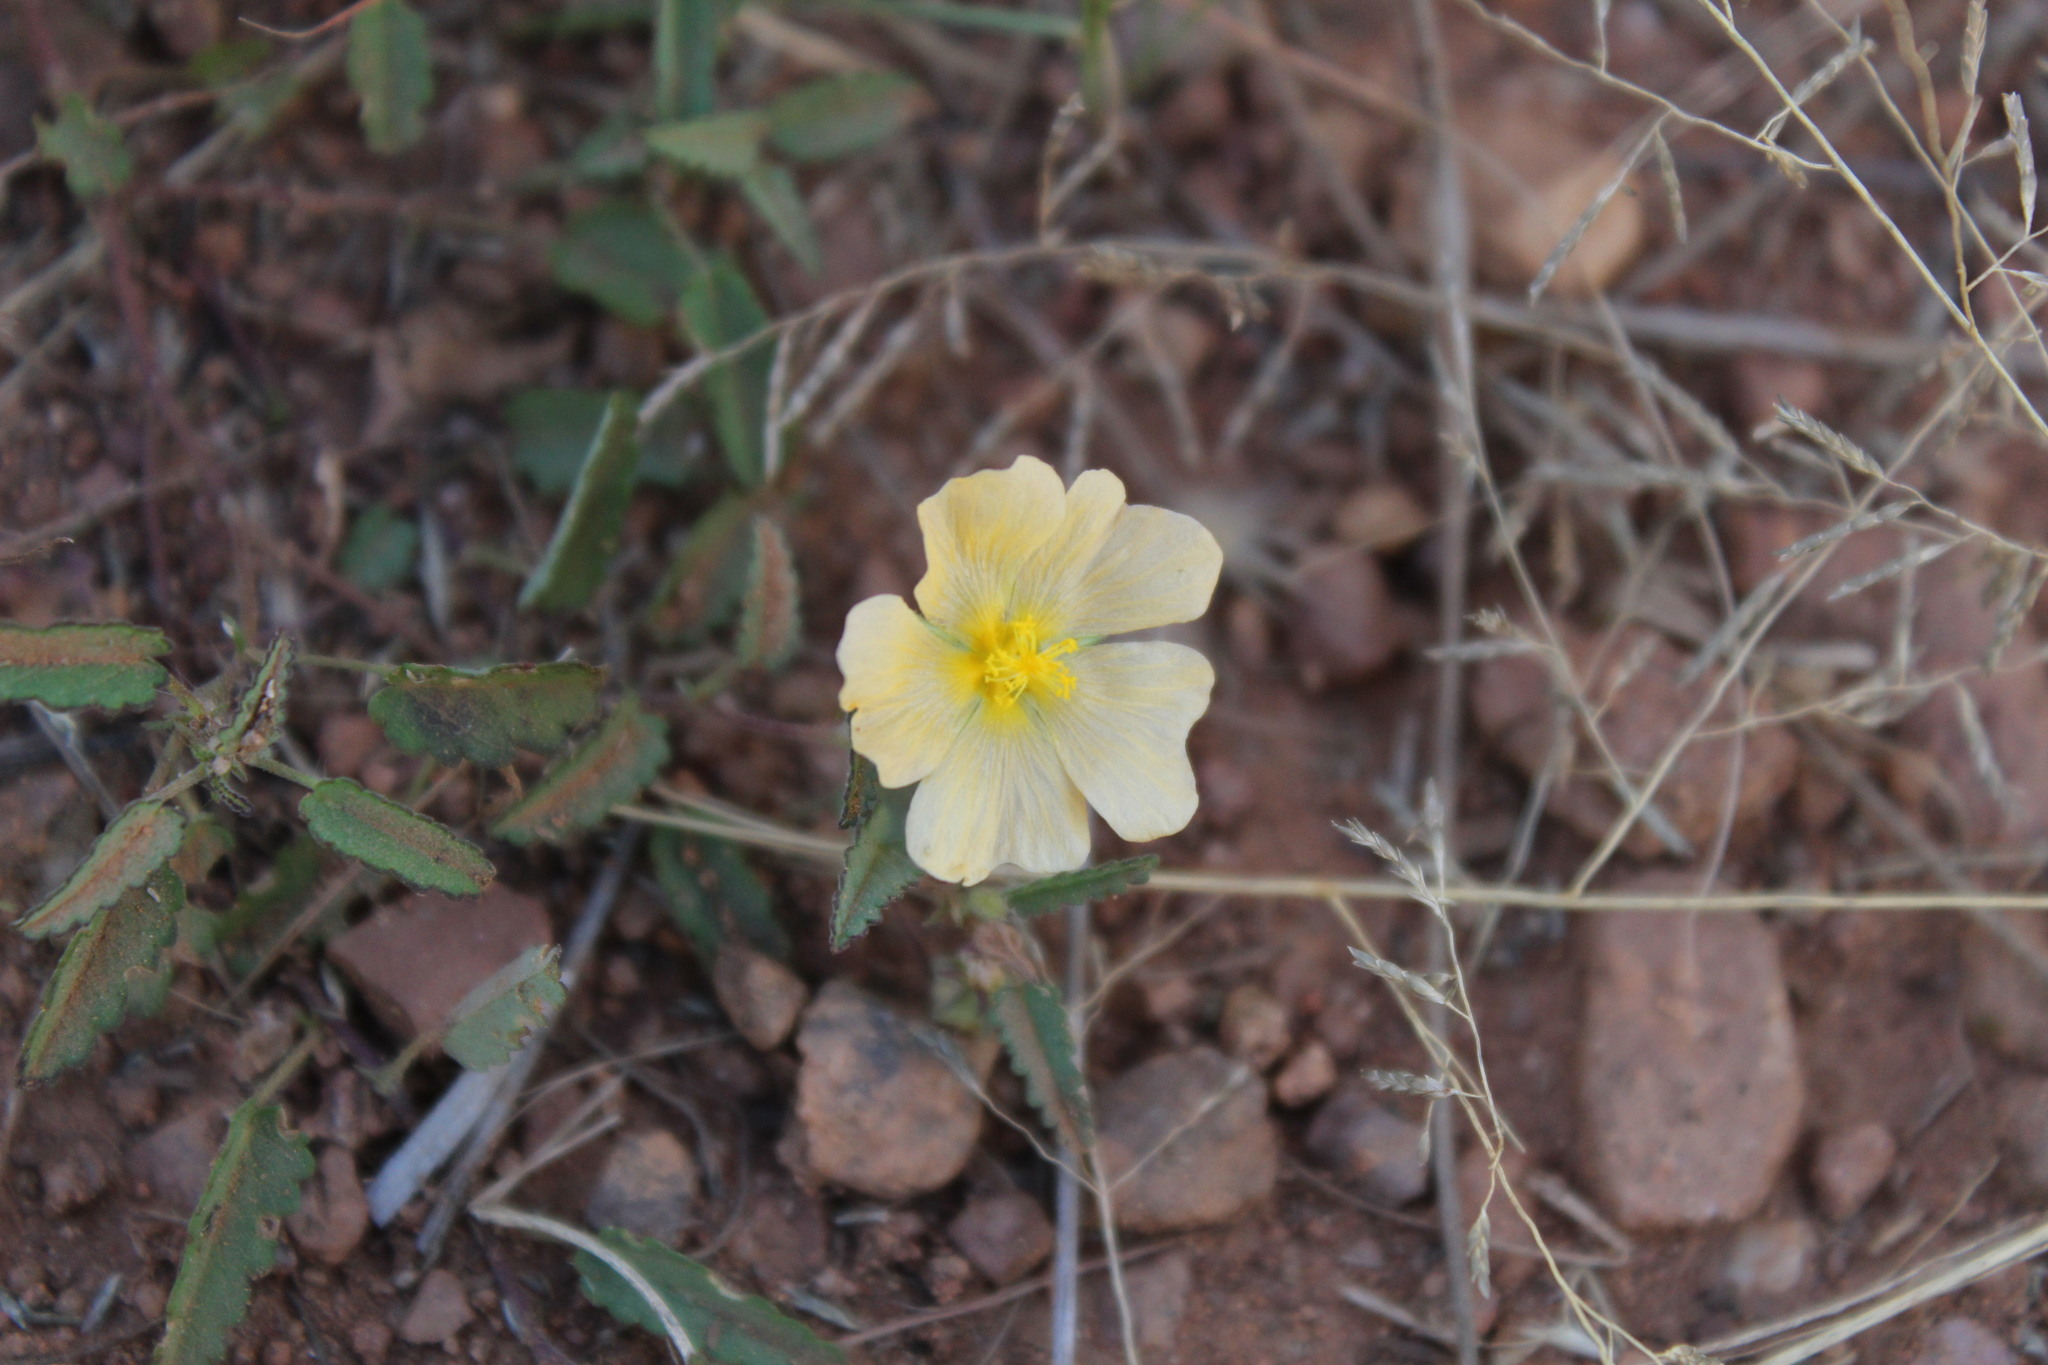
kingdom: Plantae
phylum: Tracheophyta
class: Magnoliopsida
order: Malvales
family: Malvaceae
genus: Sida
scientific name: Sida abutilifolia
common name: Spreading fanpetals
